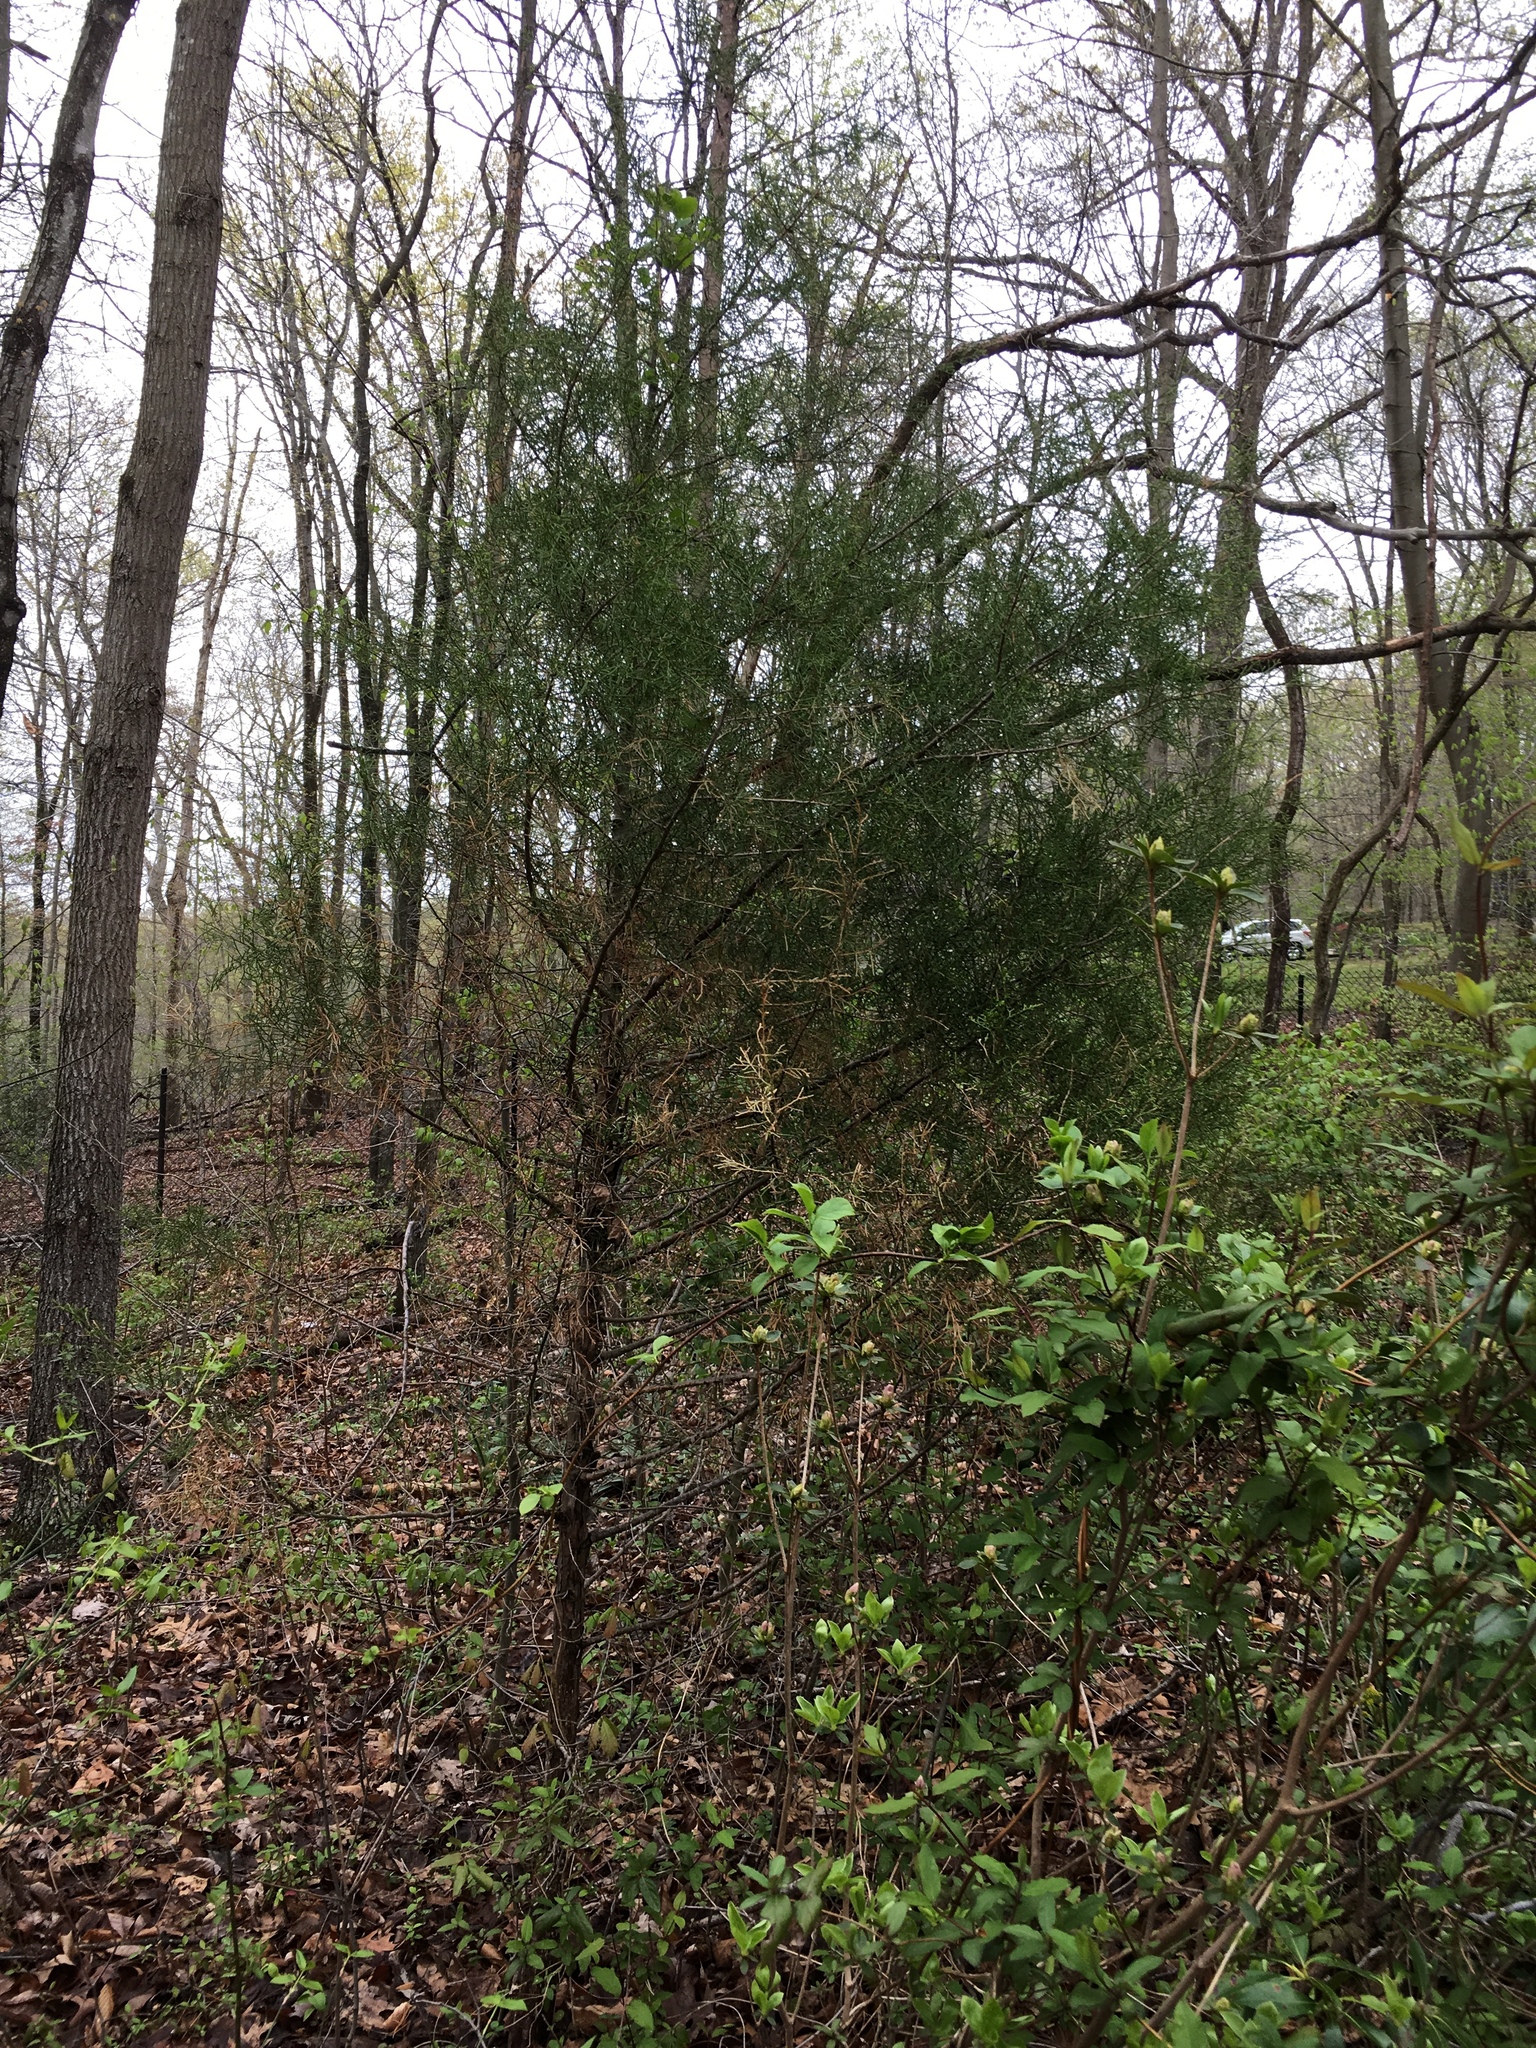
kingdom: Plantae
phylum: Tracheophyta
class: Pinopsida
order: Pinales
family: Cupressaceae
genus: Juniperus
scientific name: Juniperus virginiana
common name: Red juniper
